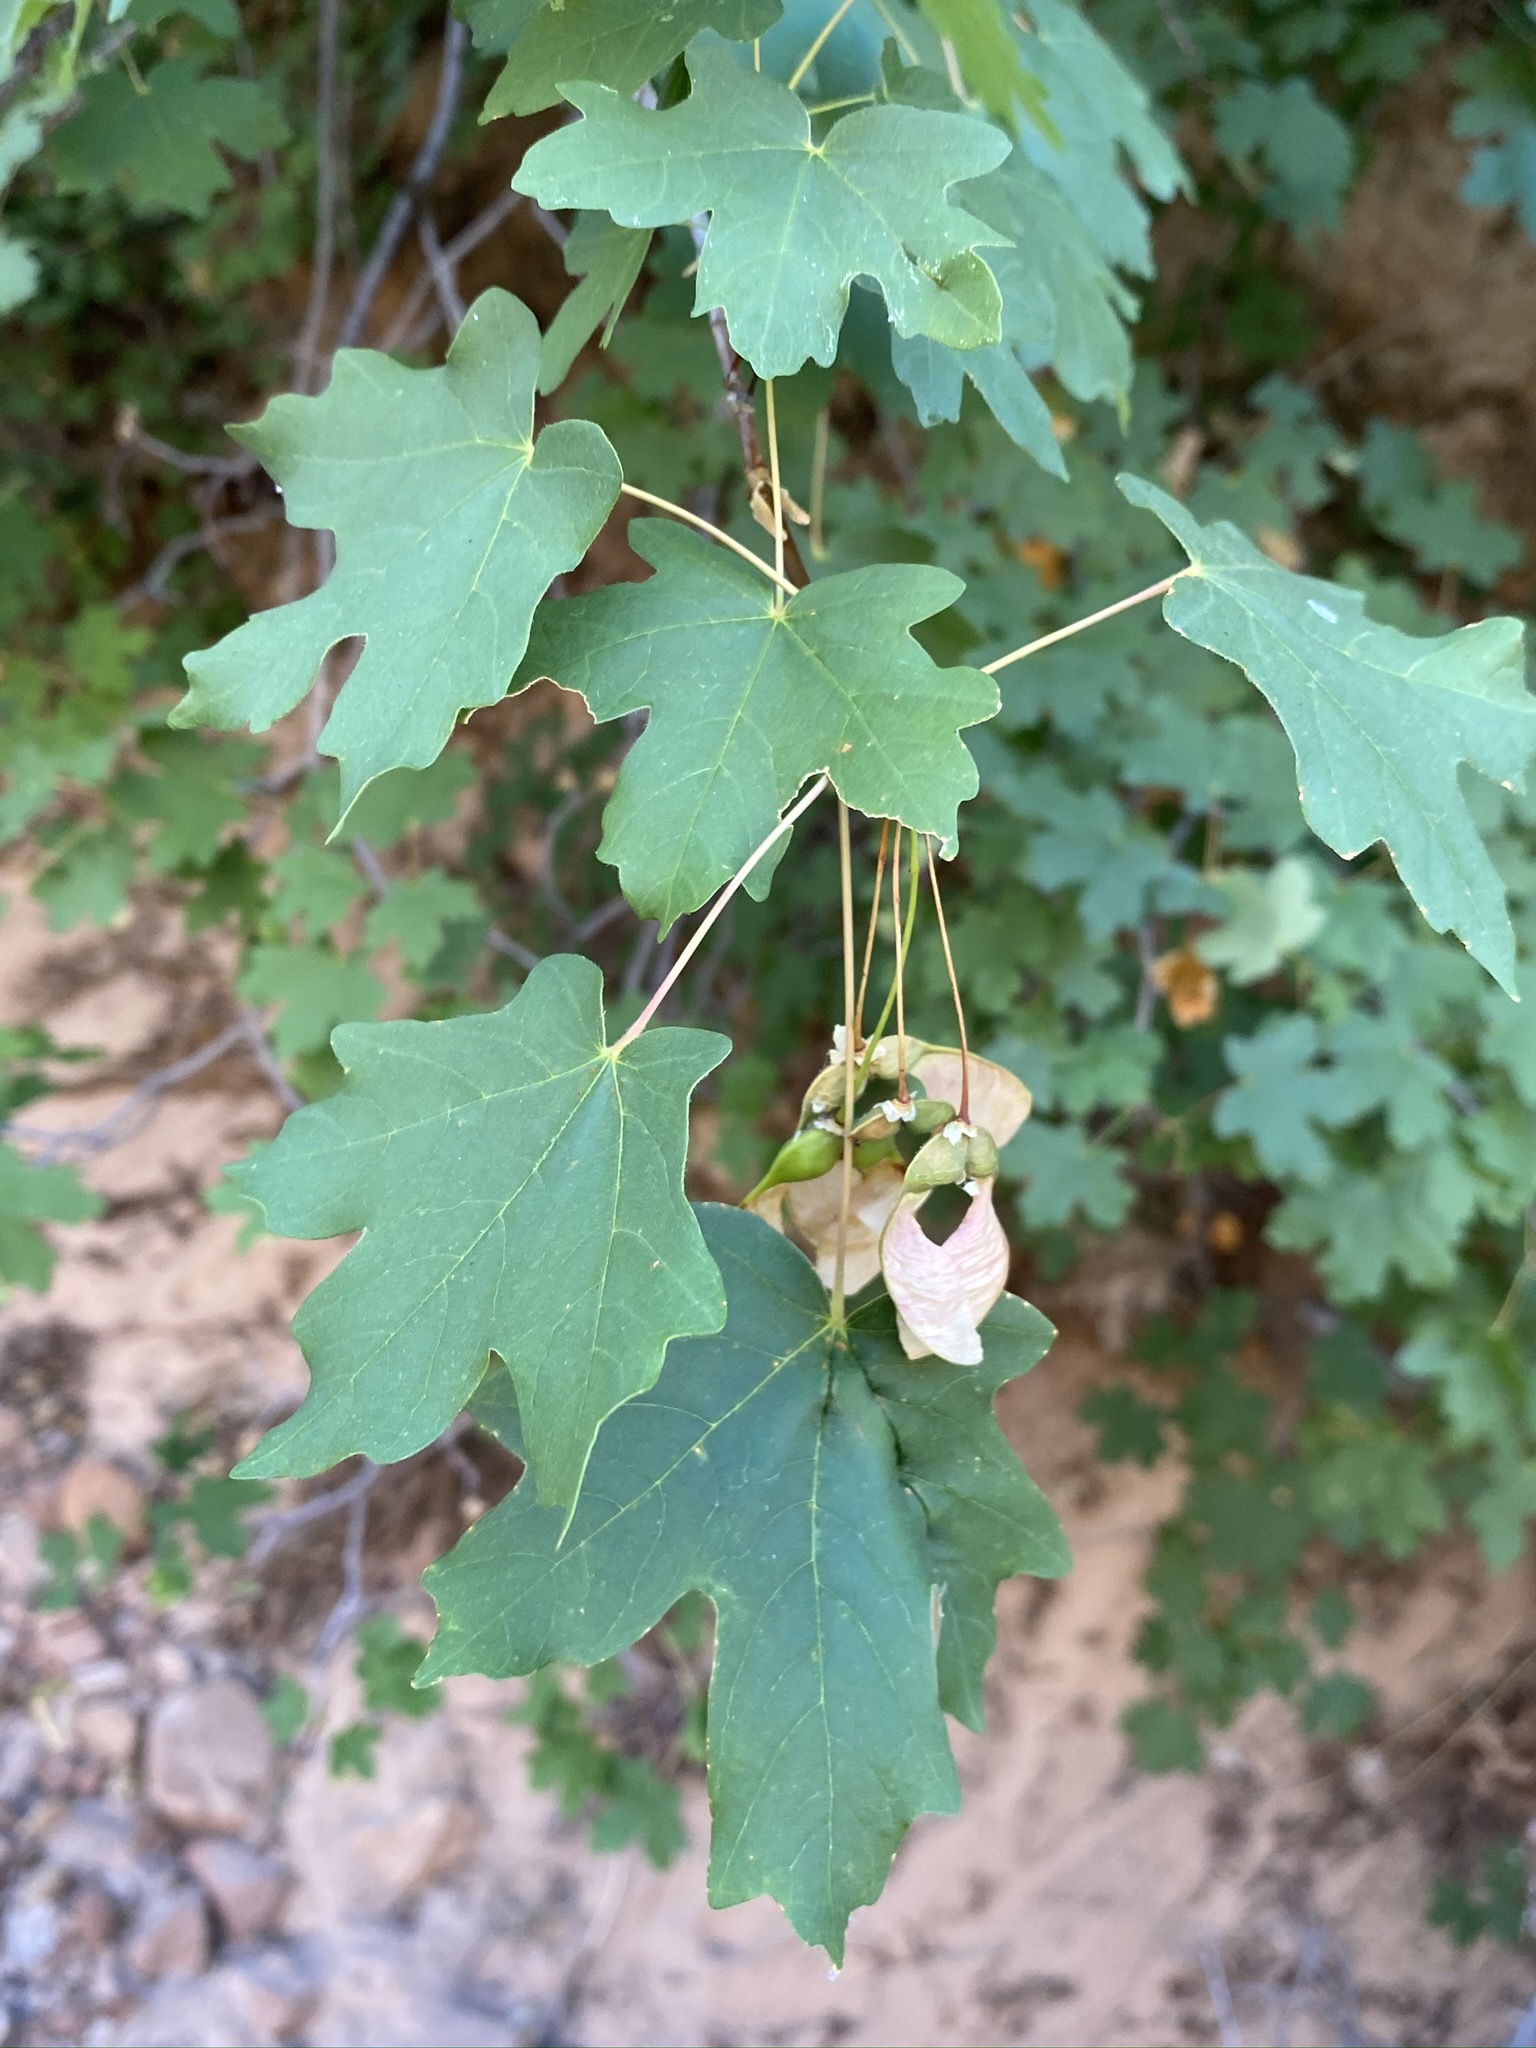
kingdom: Plantae
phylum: Tracheophyta
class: Magnoliopsida
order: Sapindales
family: Sapindaceae
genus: Acer
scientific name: Acer grandidentatum
